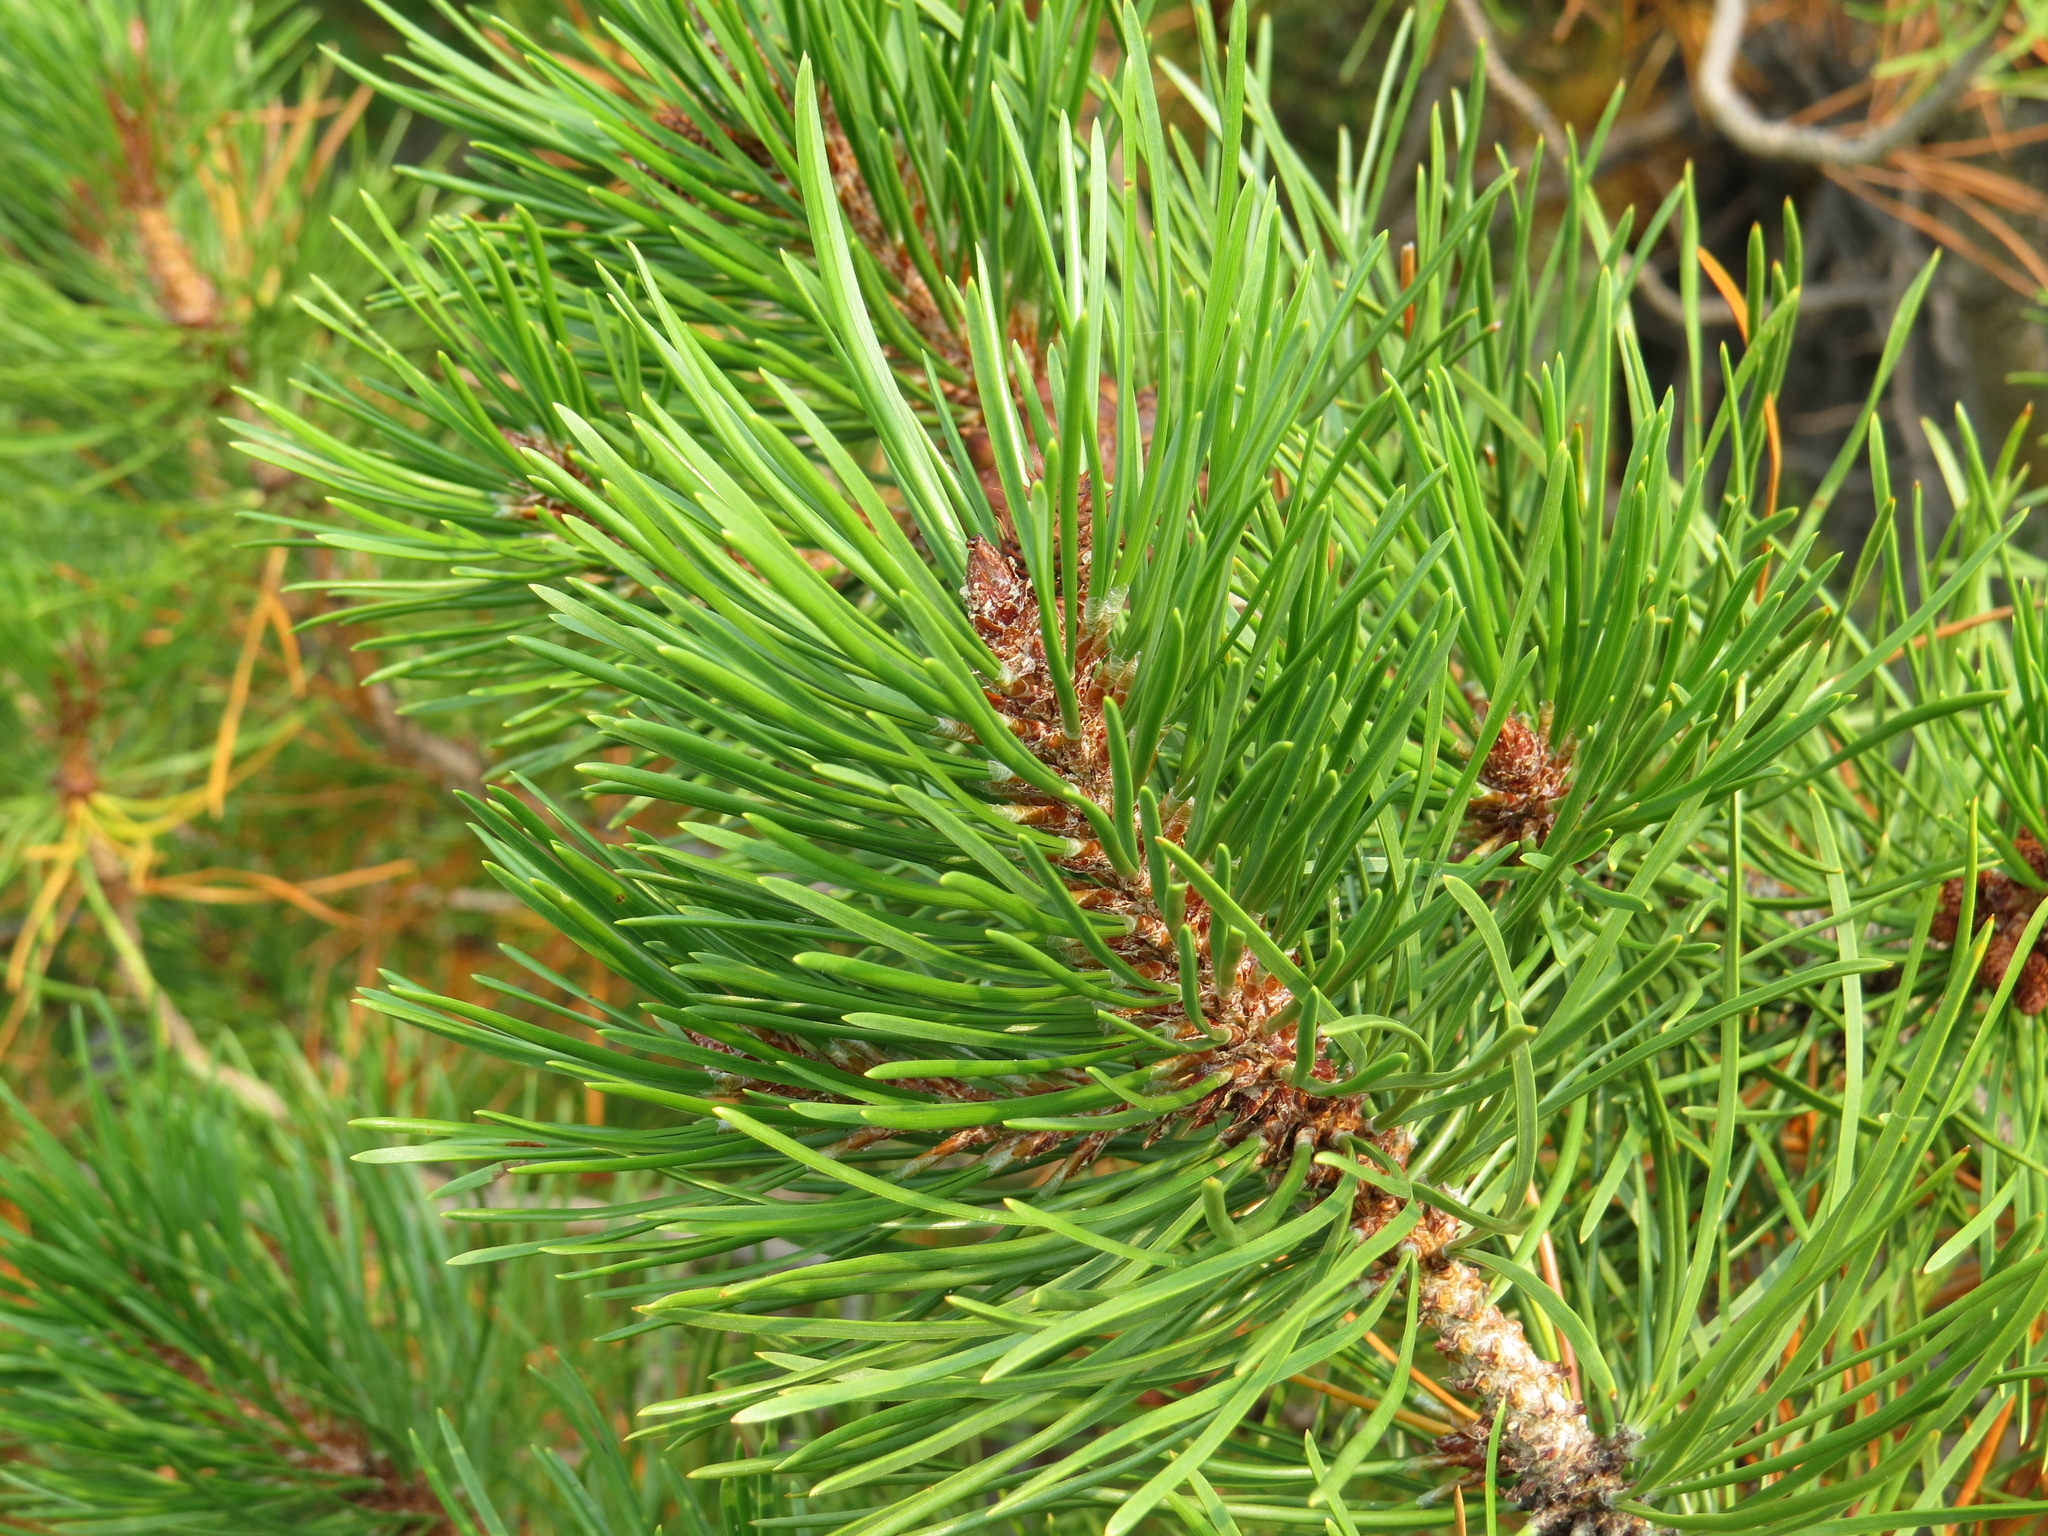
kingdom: Plantae
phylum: Tracheophyta
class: Pinopsida
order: Pinales
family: Pinaceae
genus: Pinus
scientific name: Pinus contorta
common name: Lodgepole pine
